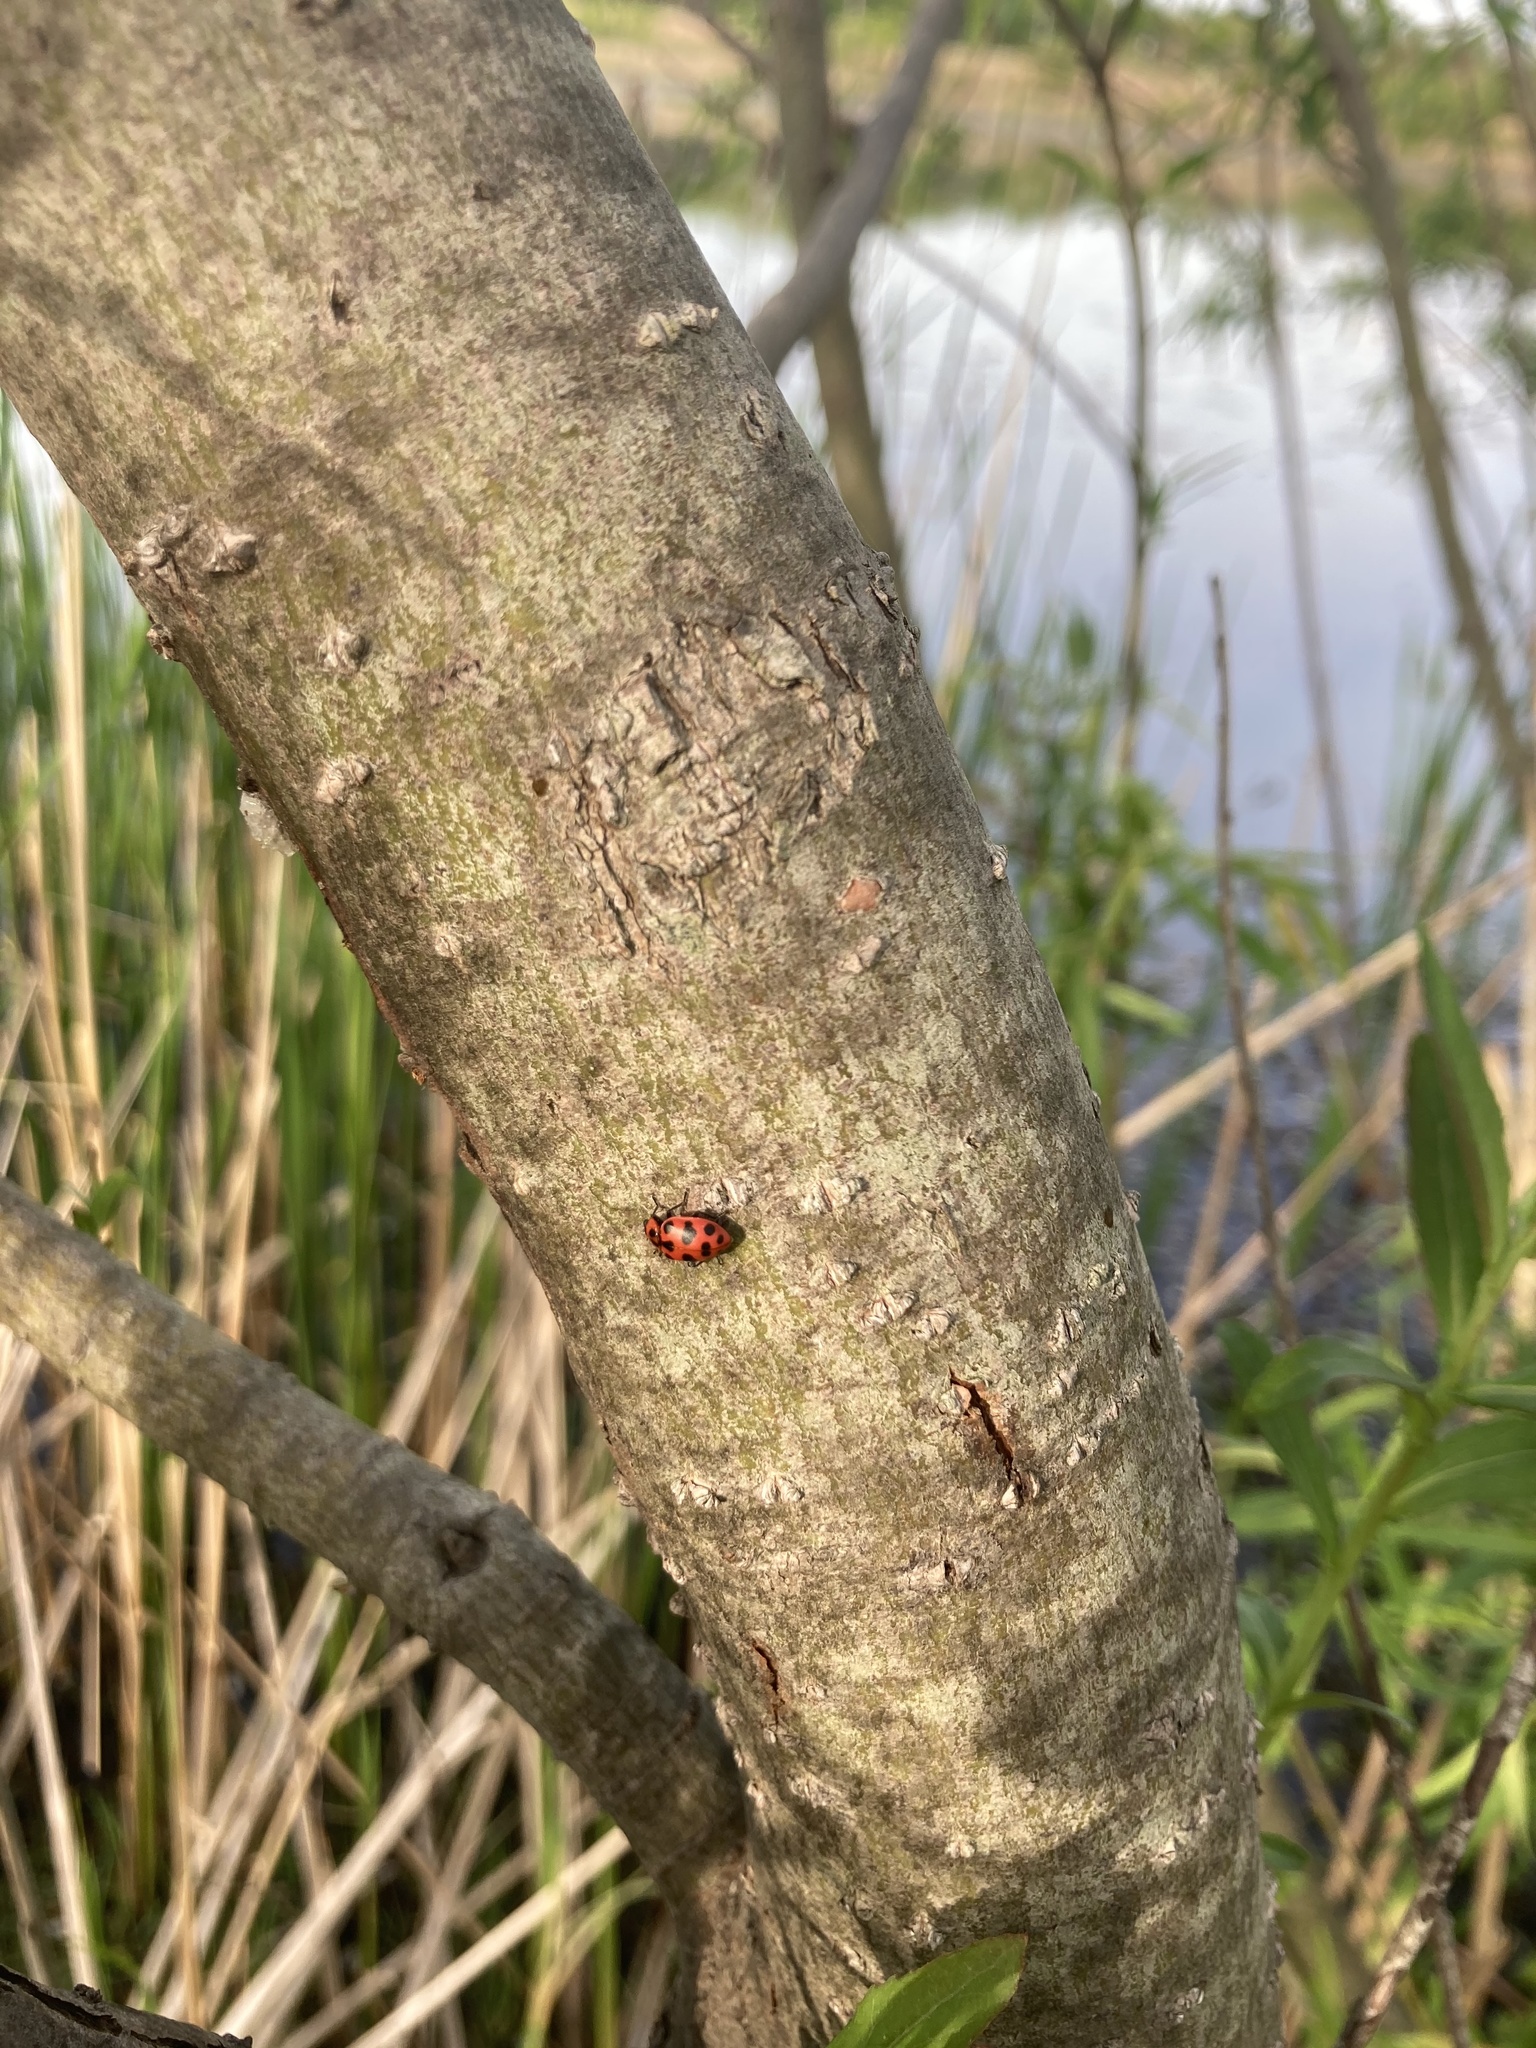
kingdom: Animalia
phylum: Arthropoda
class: Insecta
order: Coleoptera
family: Coccinellidae
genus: Coleomegilla
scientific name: Coleomegilla maculata
